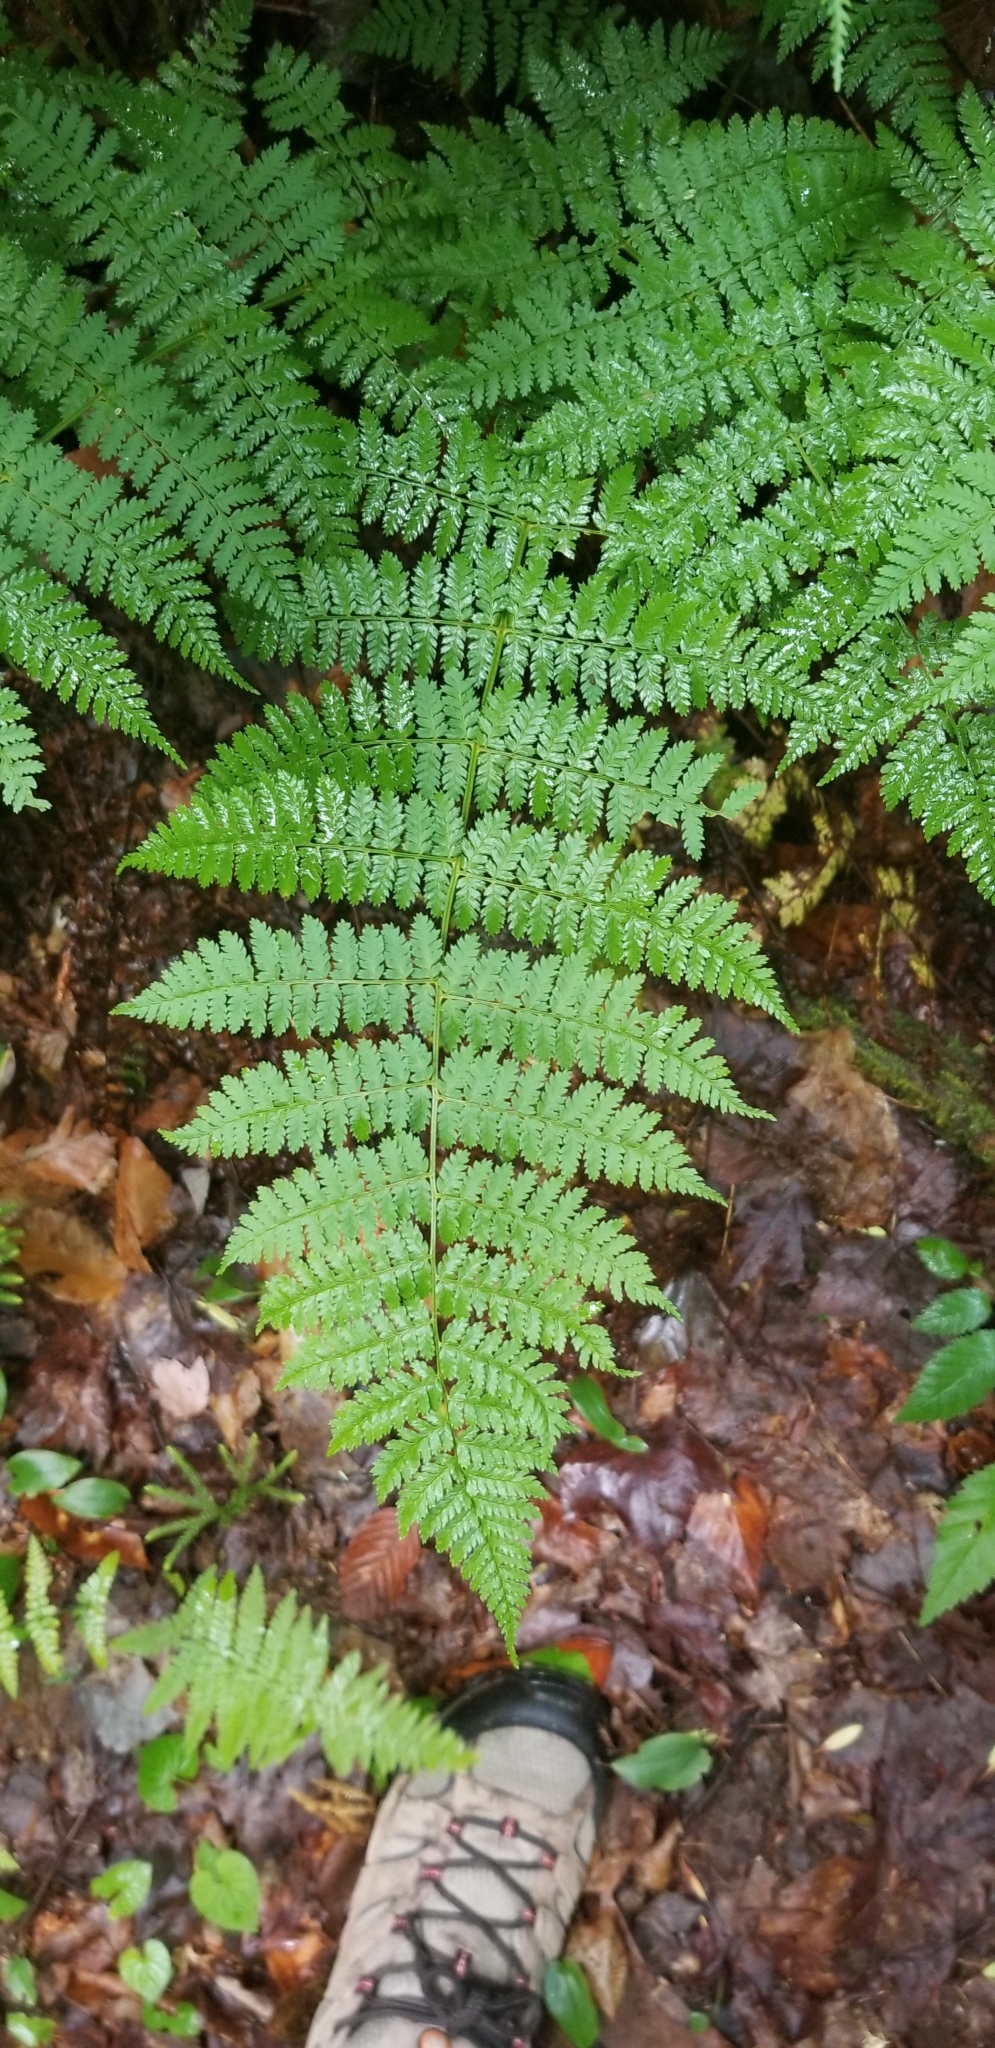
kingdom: Plantae
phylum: Tracheophyta
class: Polypodiopsida
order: Polypodiales
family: Dryopteridaceae
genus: Dryopteris
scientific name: Dryopteris intermedia
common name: Evergreen wood fern
